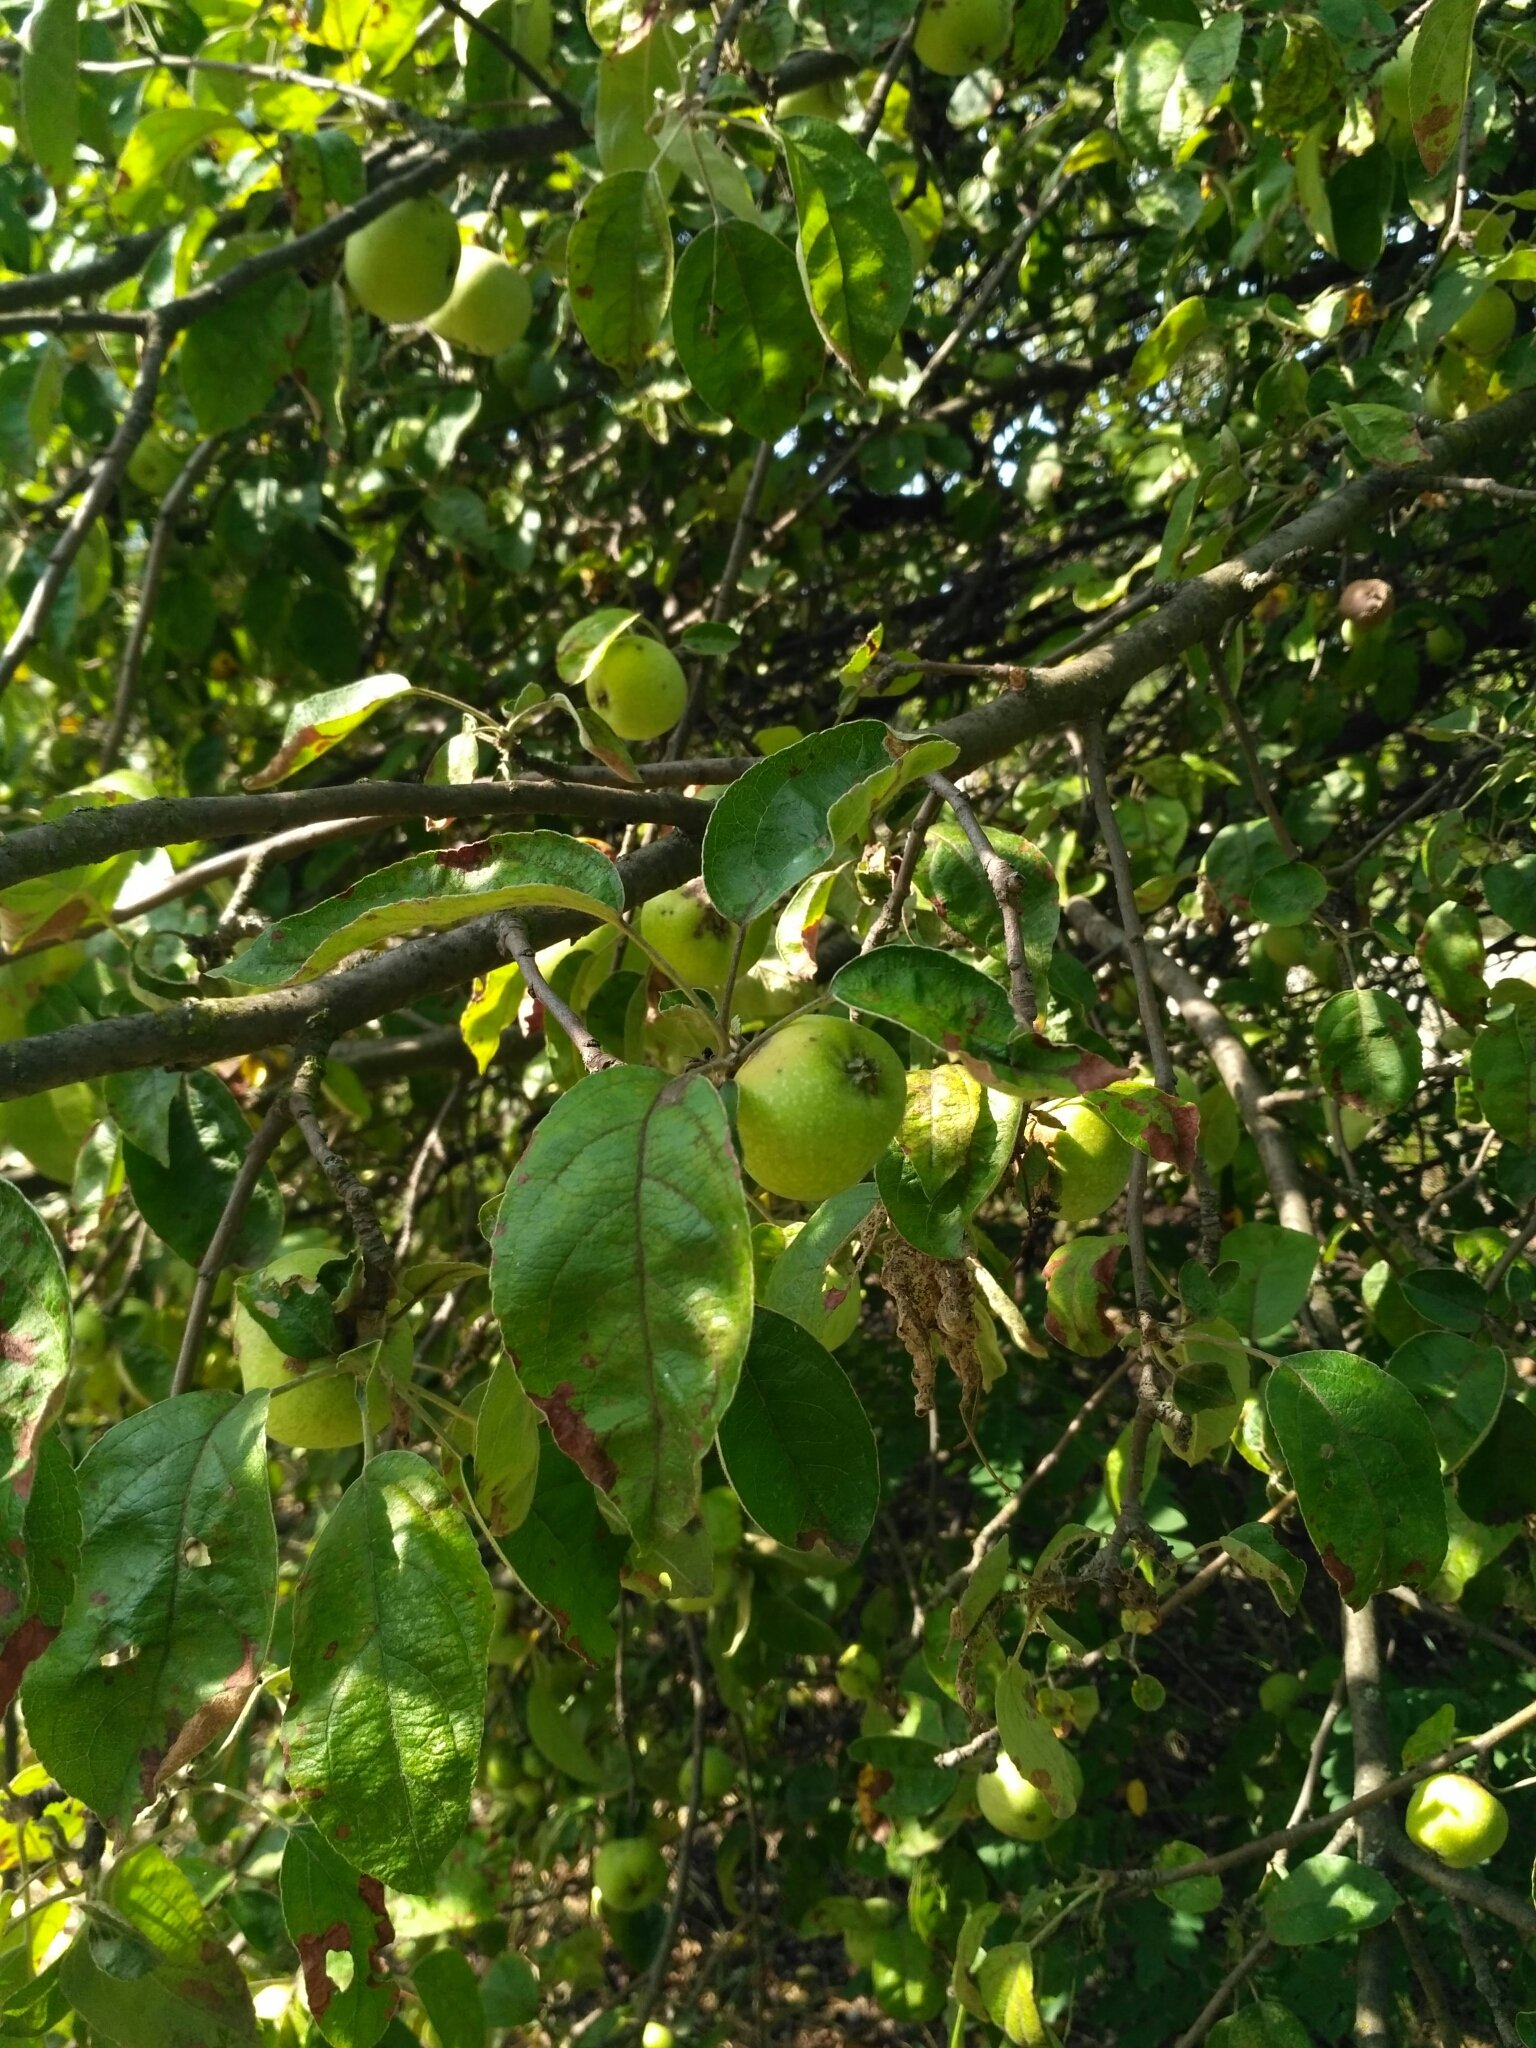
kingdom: Plantae
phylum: Tracheophyta
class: Magnoliopsida
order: Rosales
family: Rosaceae
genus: Malus
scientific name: Malus domestica
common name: Apple
